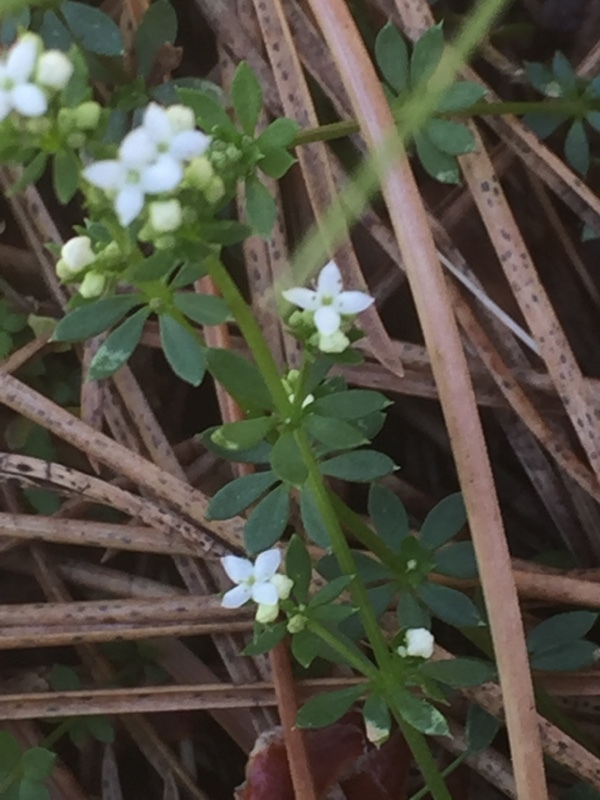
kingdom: Plantae
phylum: Tracheophyta
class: Magnoliopsida
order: Gentianales
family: Rubiaceae
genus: Galium
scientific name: Galium saxatile
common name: Heath bedstraw
